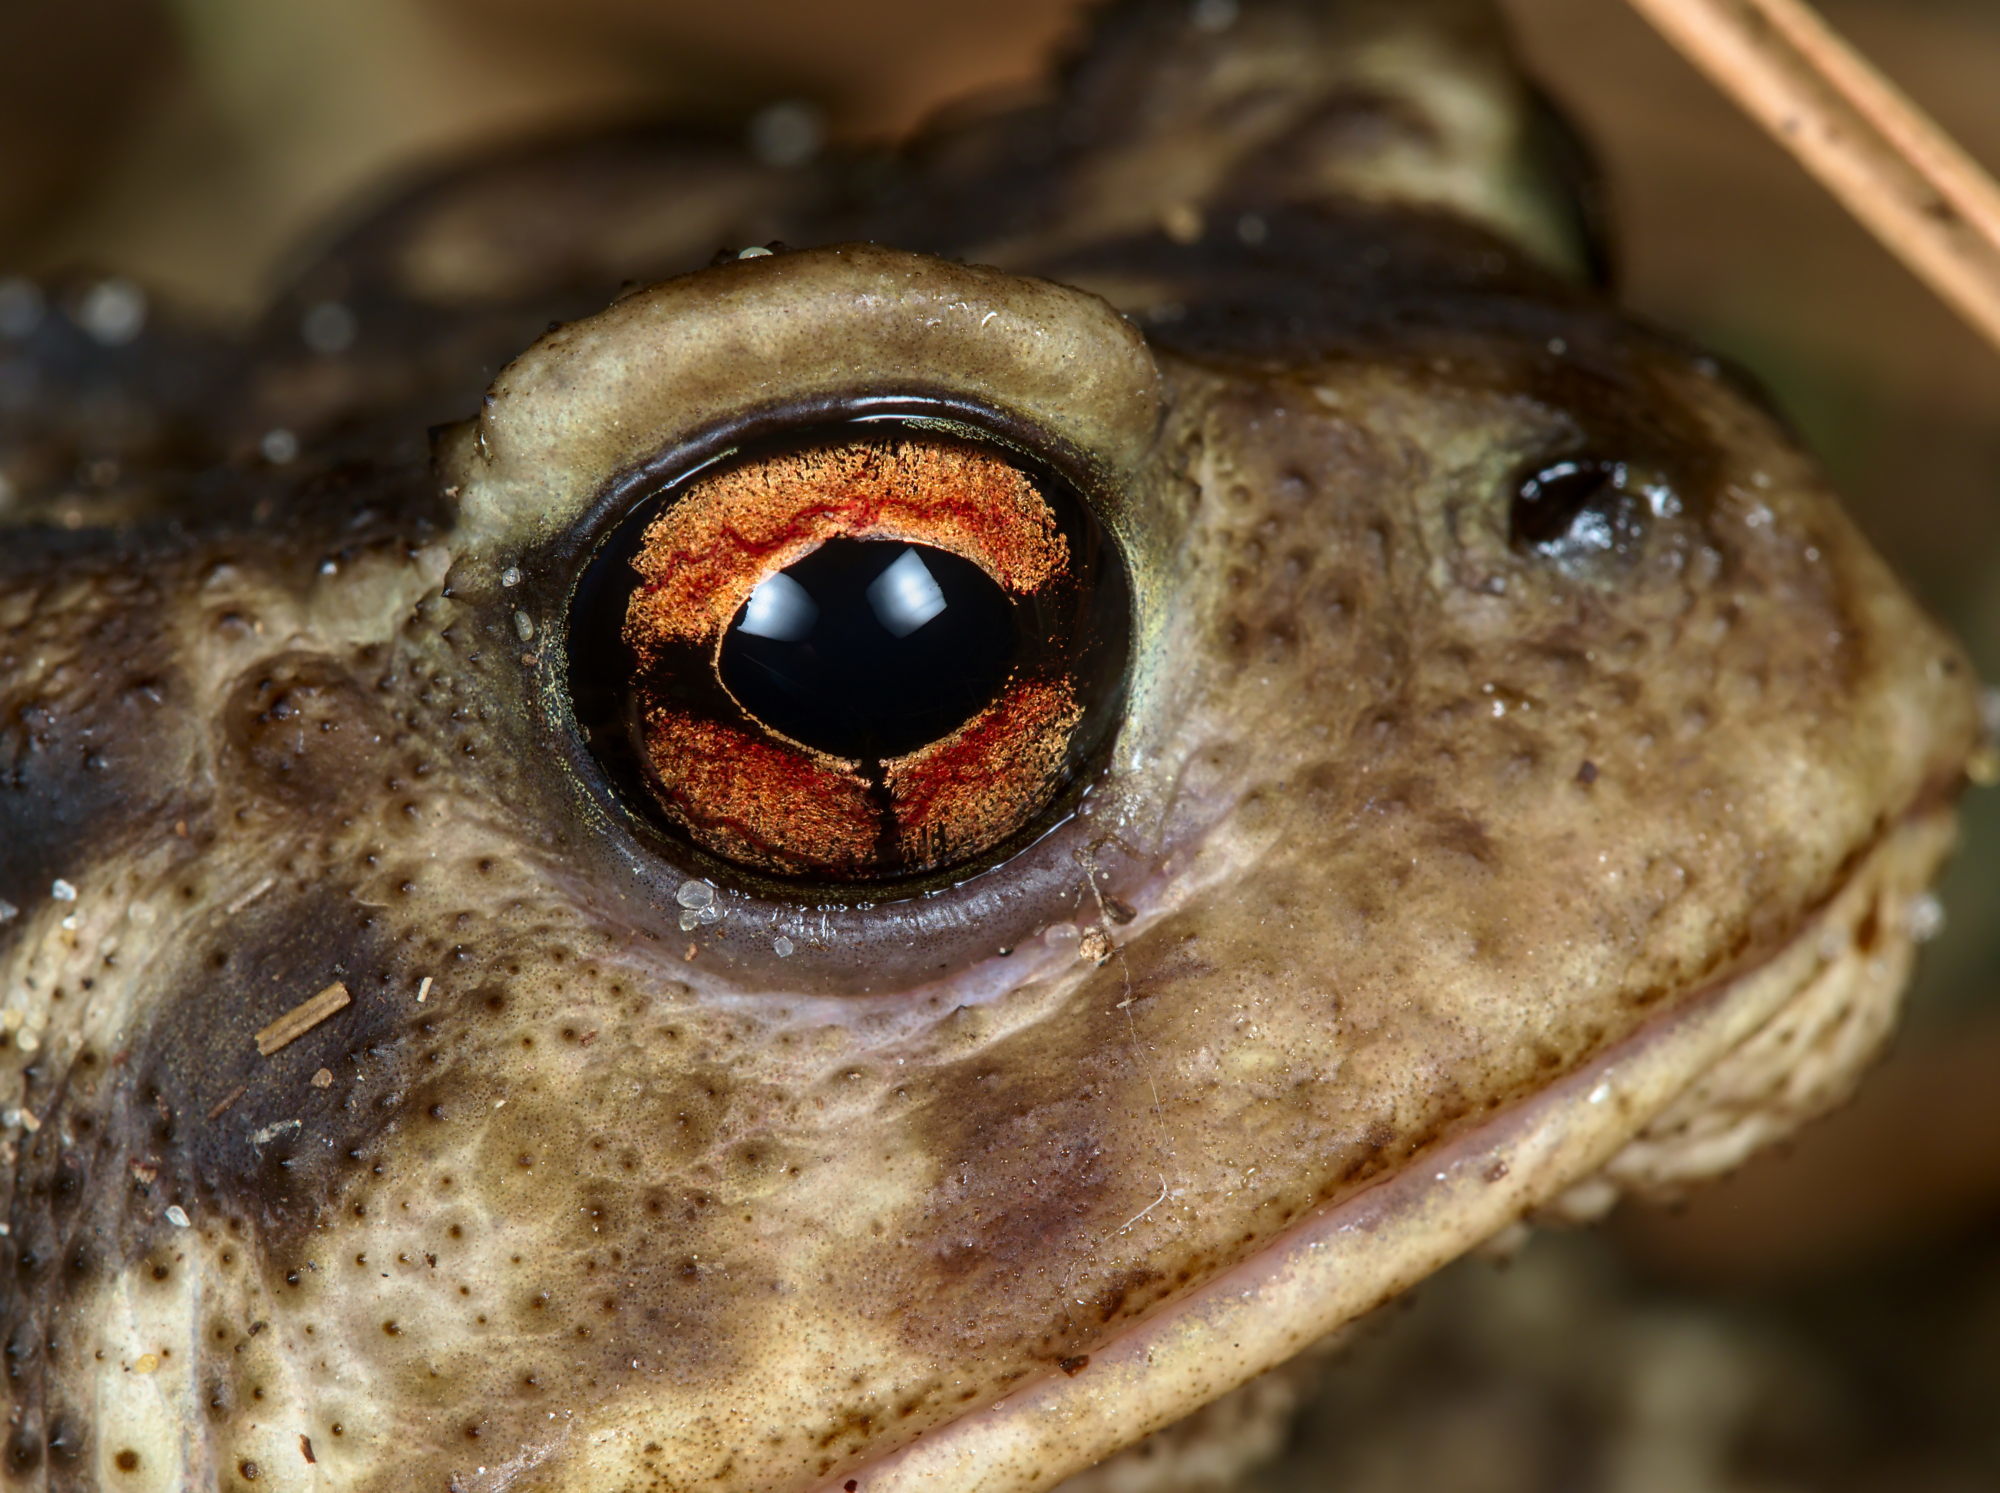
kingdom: Animalia
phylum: Chordata
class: Amphibia
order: Anura
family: Bufonidae
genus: Bufo
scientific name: Bufo spinosus
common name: Western common toad
